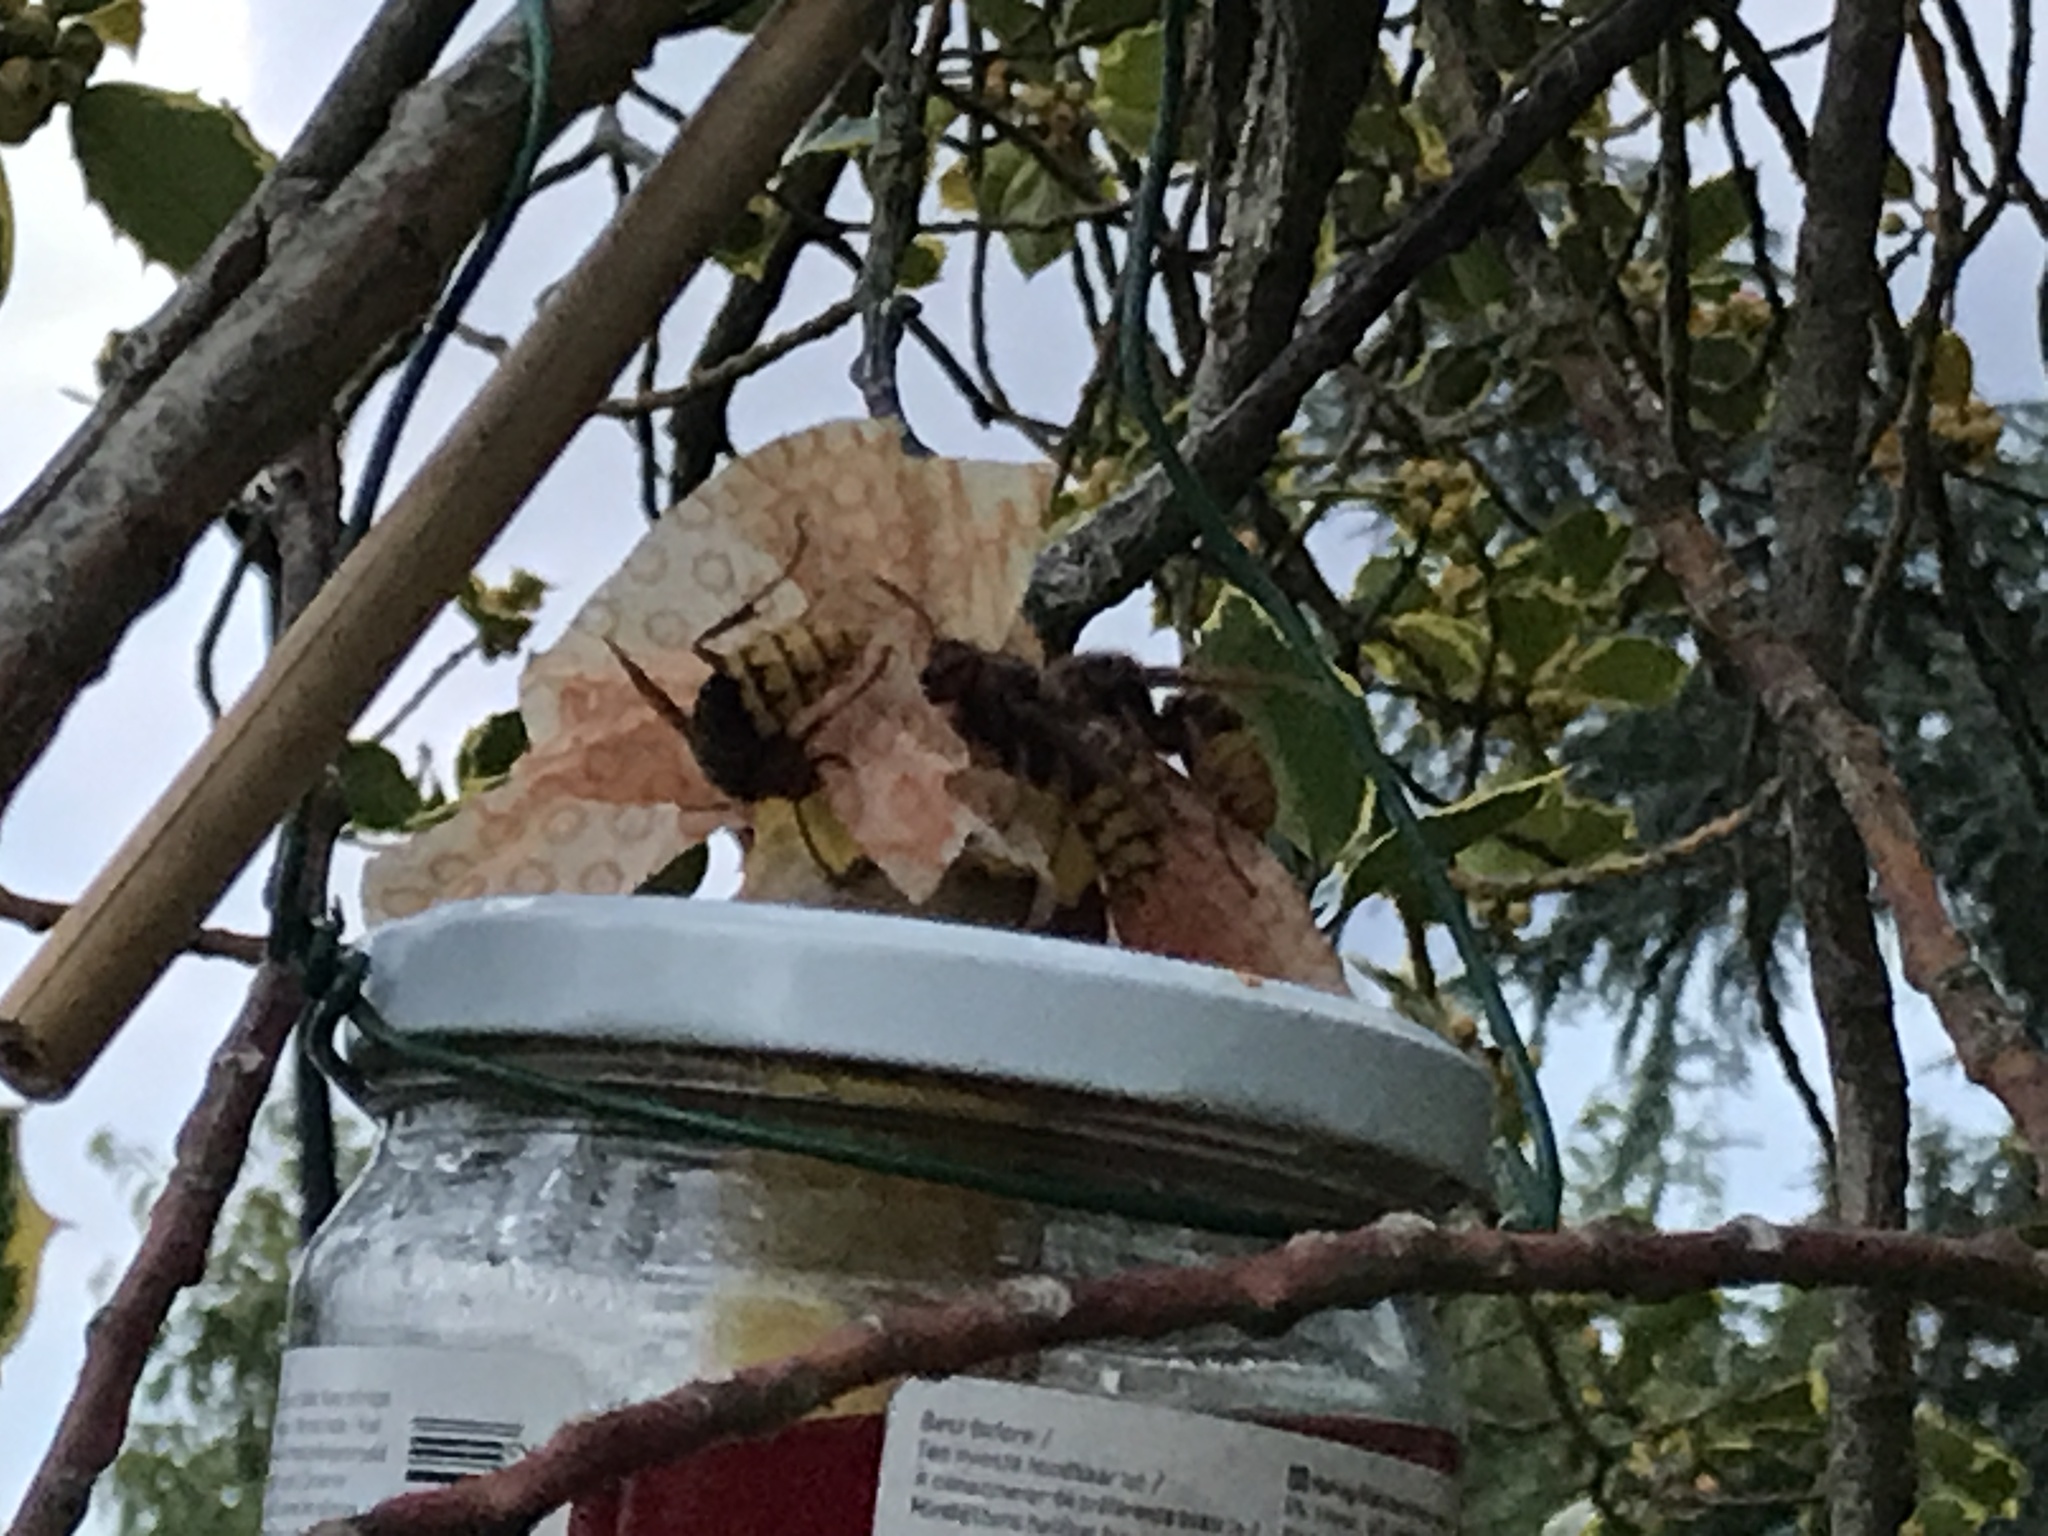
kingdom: Animalia
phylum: Arthropoda
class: Insecta
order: Hymenoptera
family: Vespidae
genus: Vespa
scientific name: Vespa crabro
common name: Hornet
